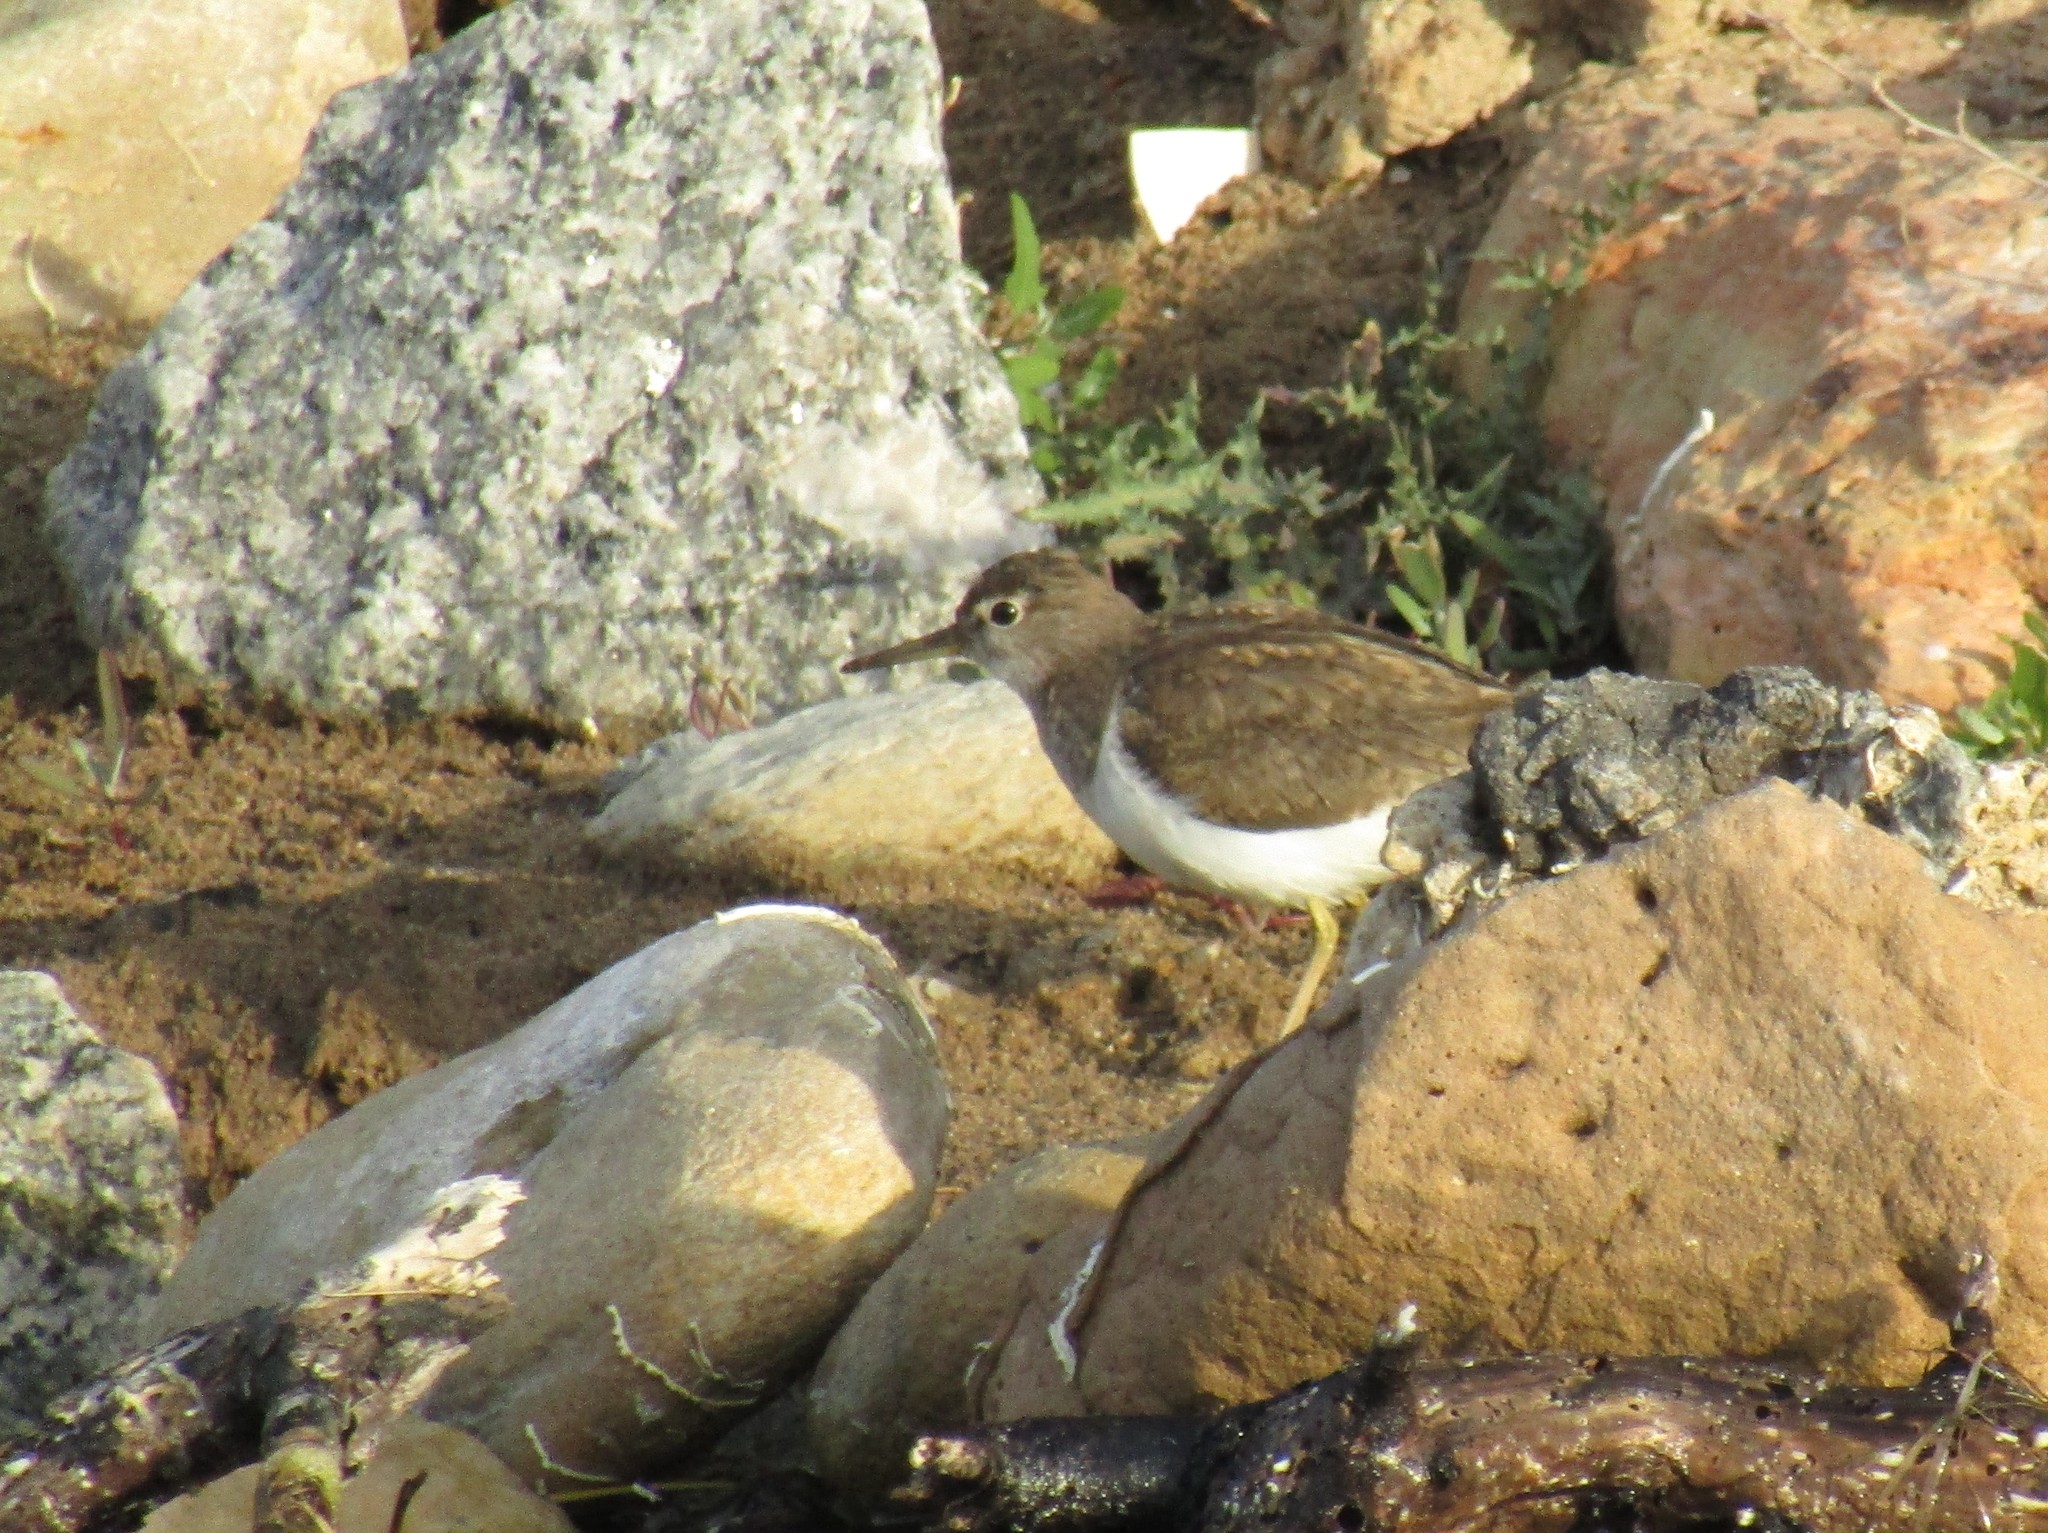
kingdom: Animalia
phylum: Chordata
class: Aves
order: Charadriiformes
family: Scolopacidae
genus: Actitis
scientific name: Actitis hypoleucos
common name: Common sandpiper
